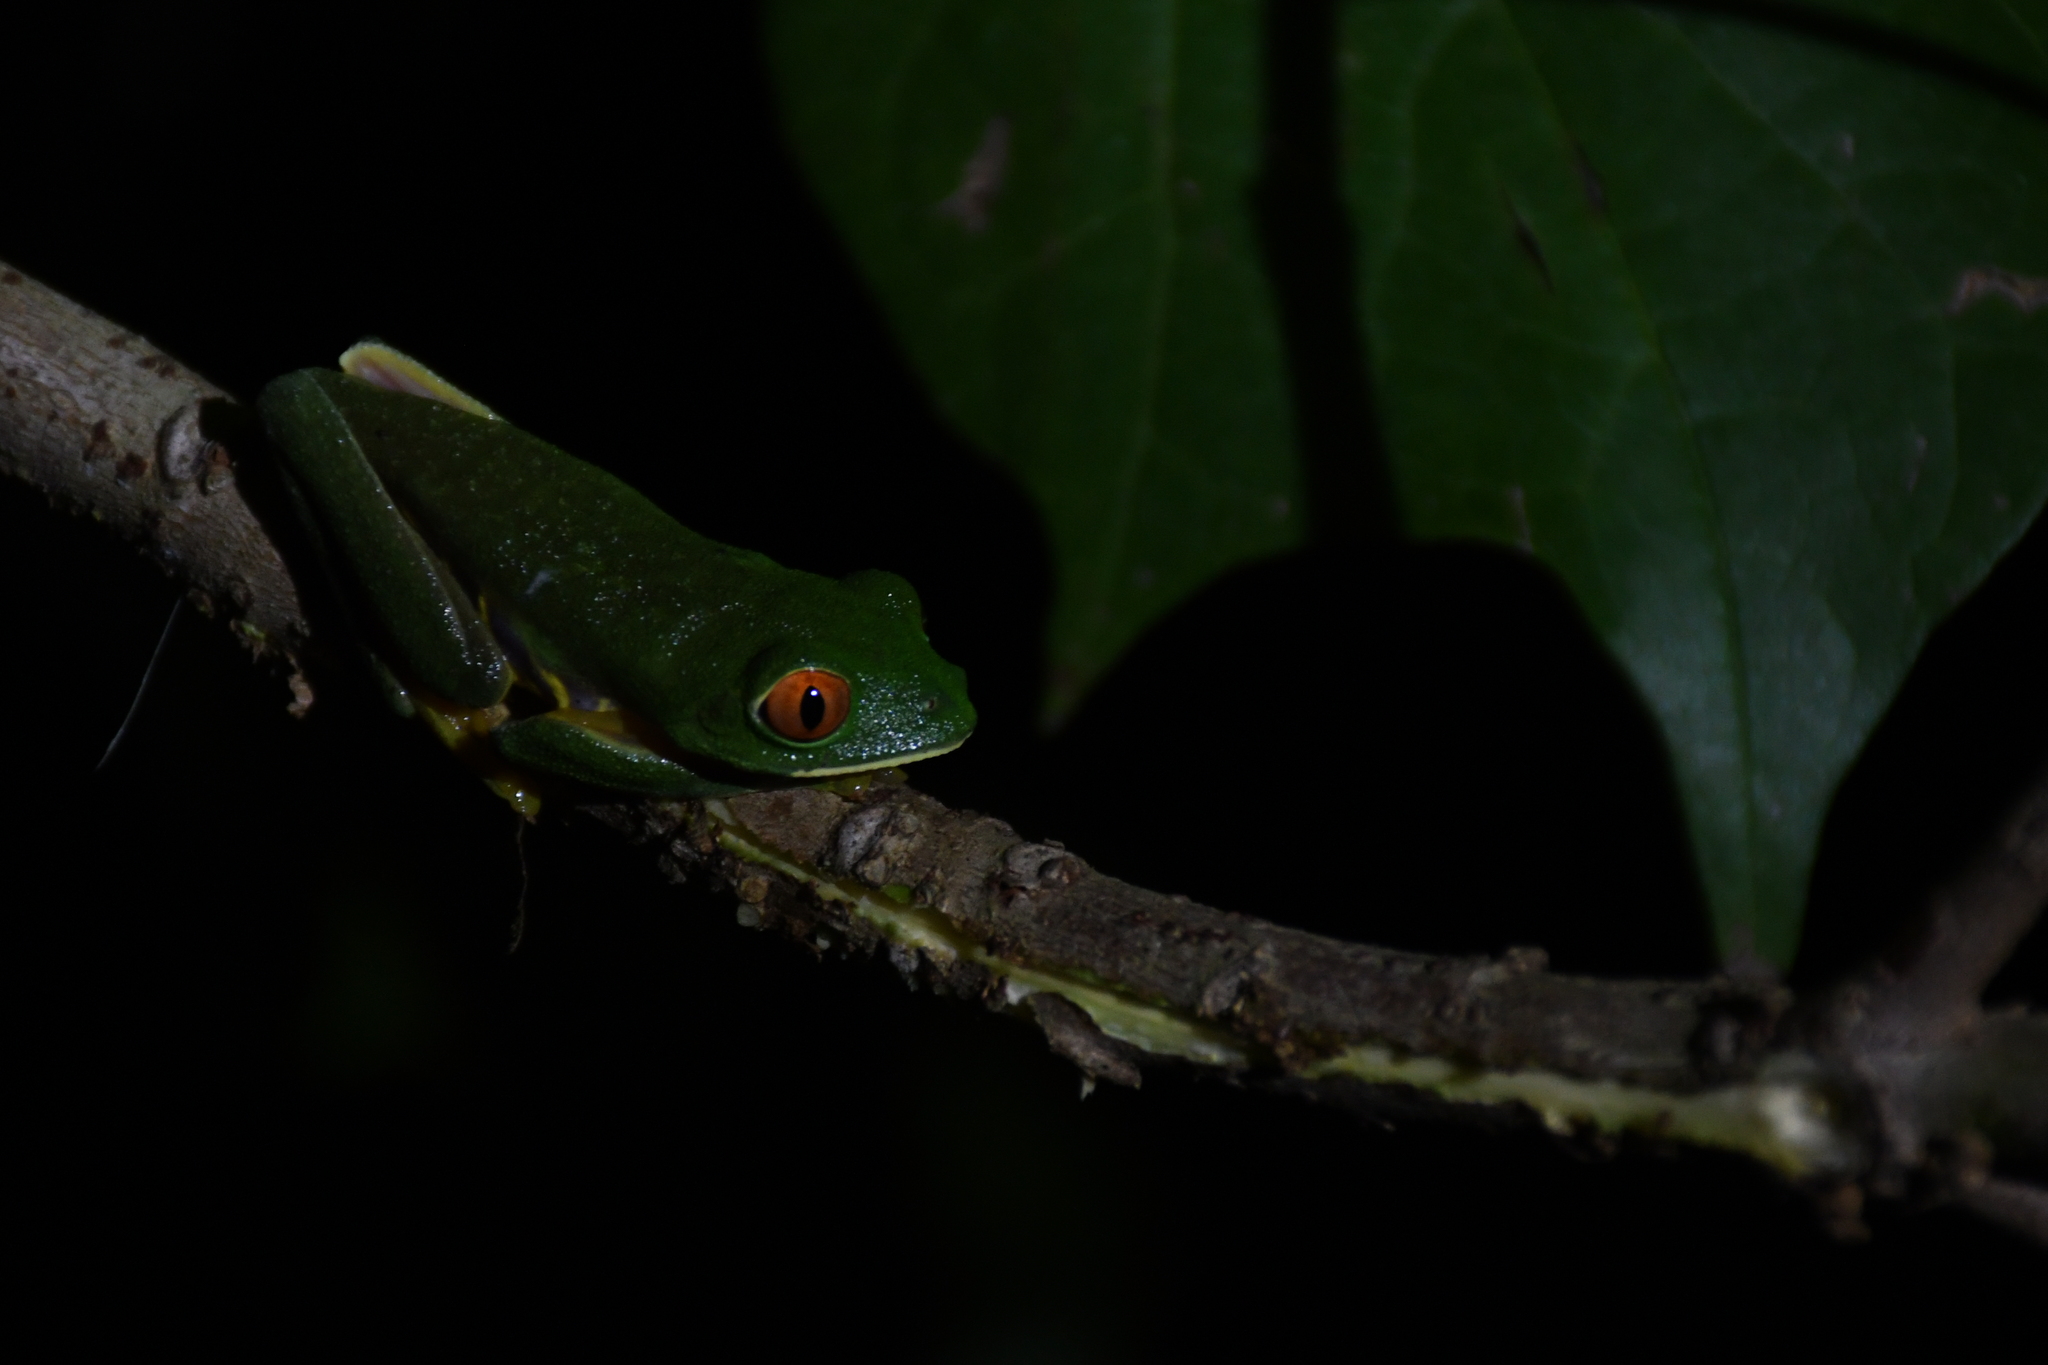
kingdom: Animalia
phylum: Chordata
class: Amphibia
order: Anura
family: Phyllomedusidae
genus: Agalychnis
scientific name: Agalychnis
